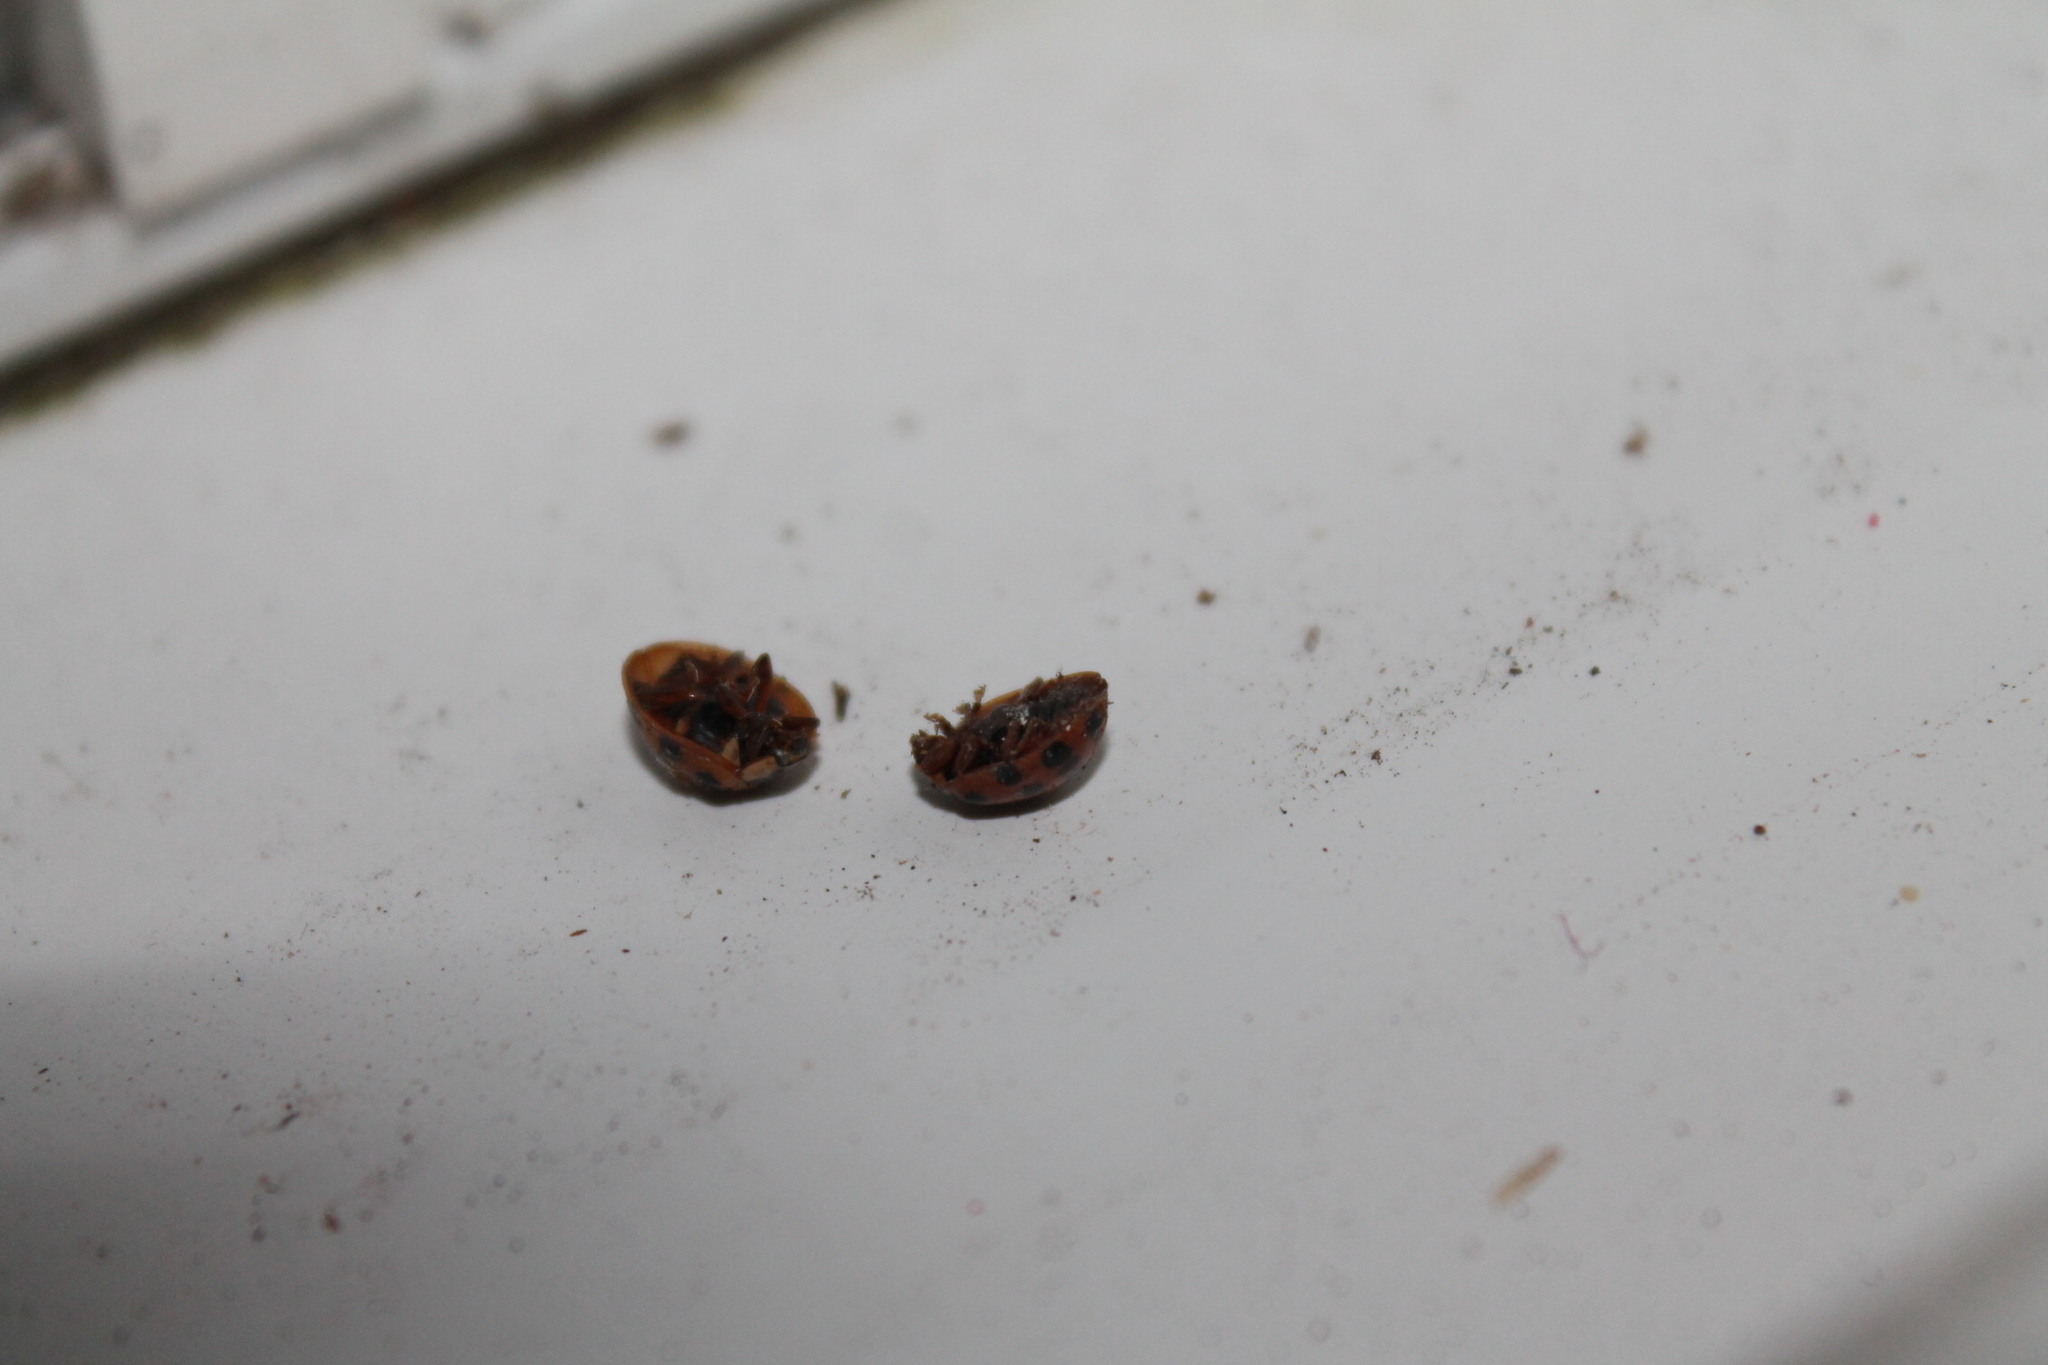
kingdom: Animalia
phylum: Arthropoda
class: Insecta
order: Coleoptera
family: Coccinellidae
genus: Harmonia
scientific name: Harmonia axyridis
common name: Harlequin ladybird
